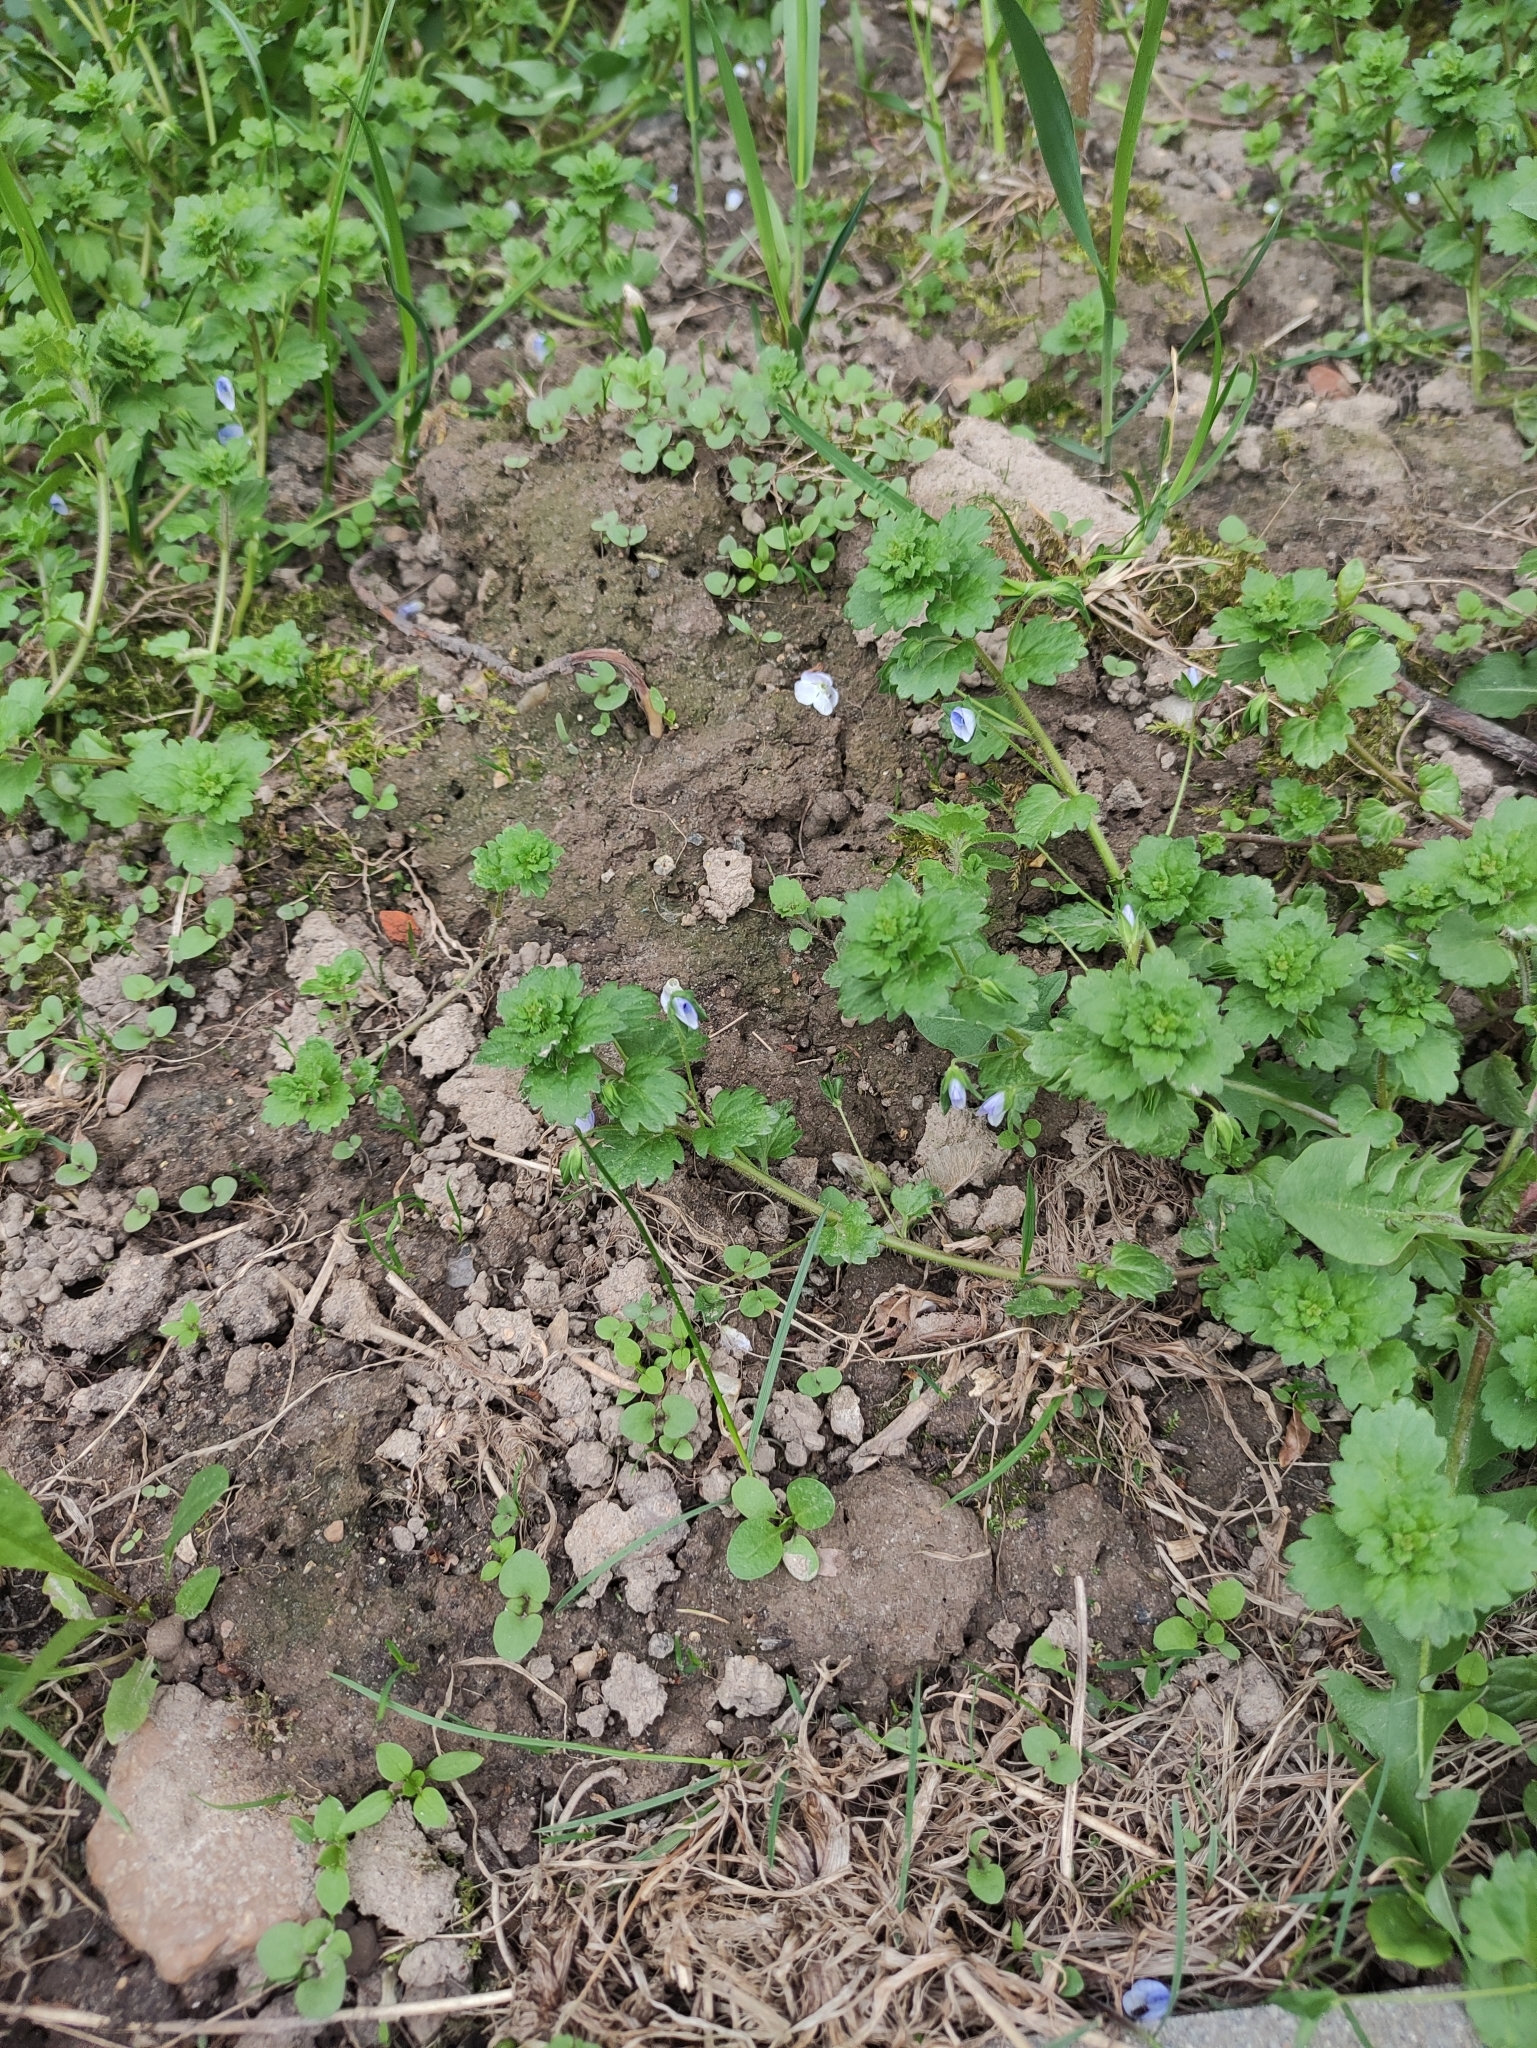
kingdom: Plantae
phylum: Tracheophyta
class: Magnoliopsida
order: Lamiales
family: Plantaginaceae
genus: Veronica
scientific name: Veronica persica
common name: Common field-speedwell
